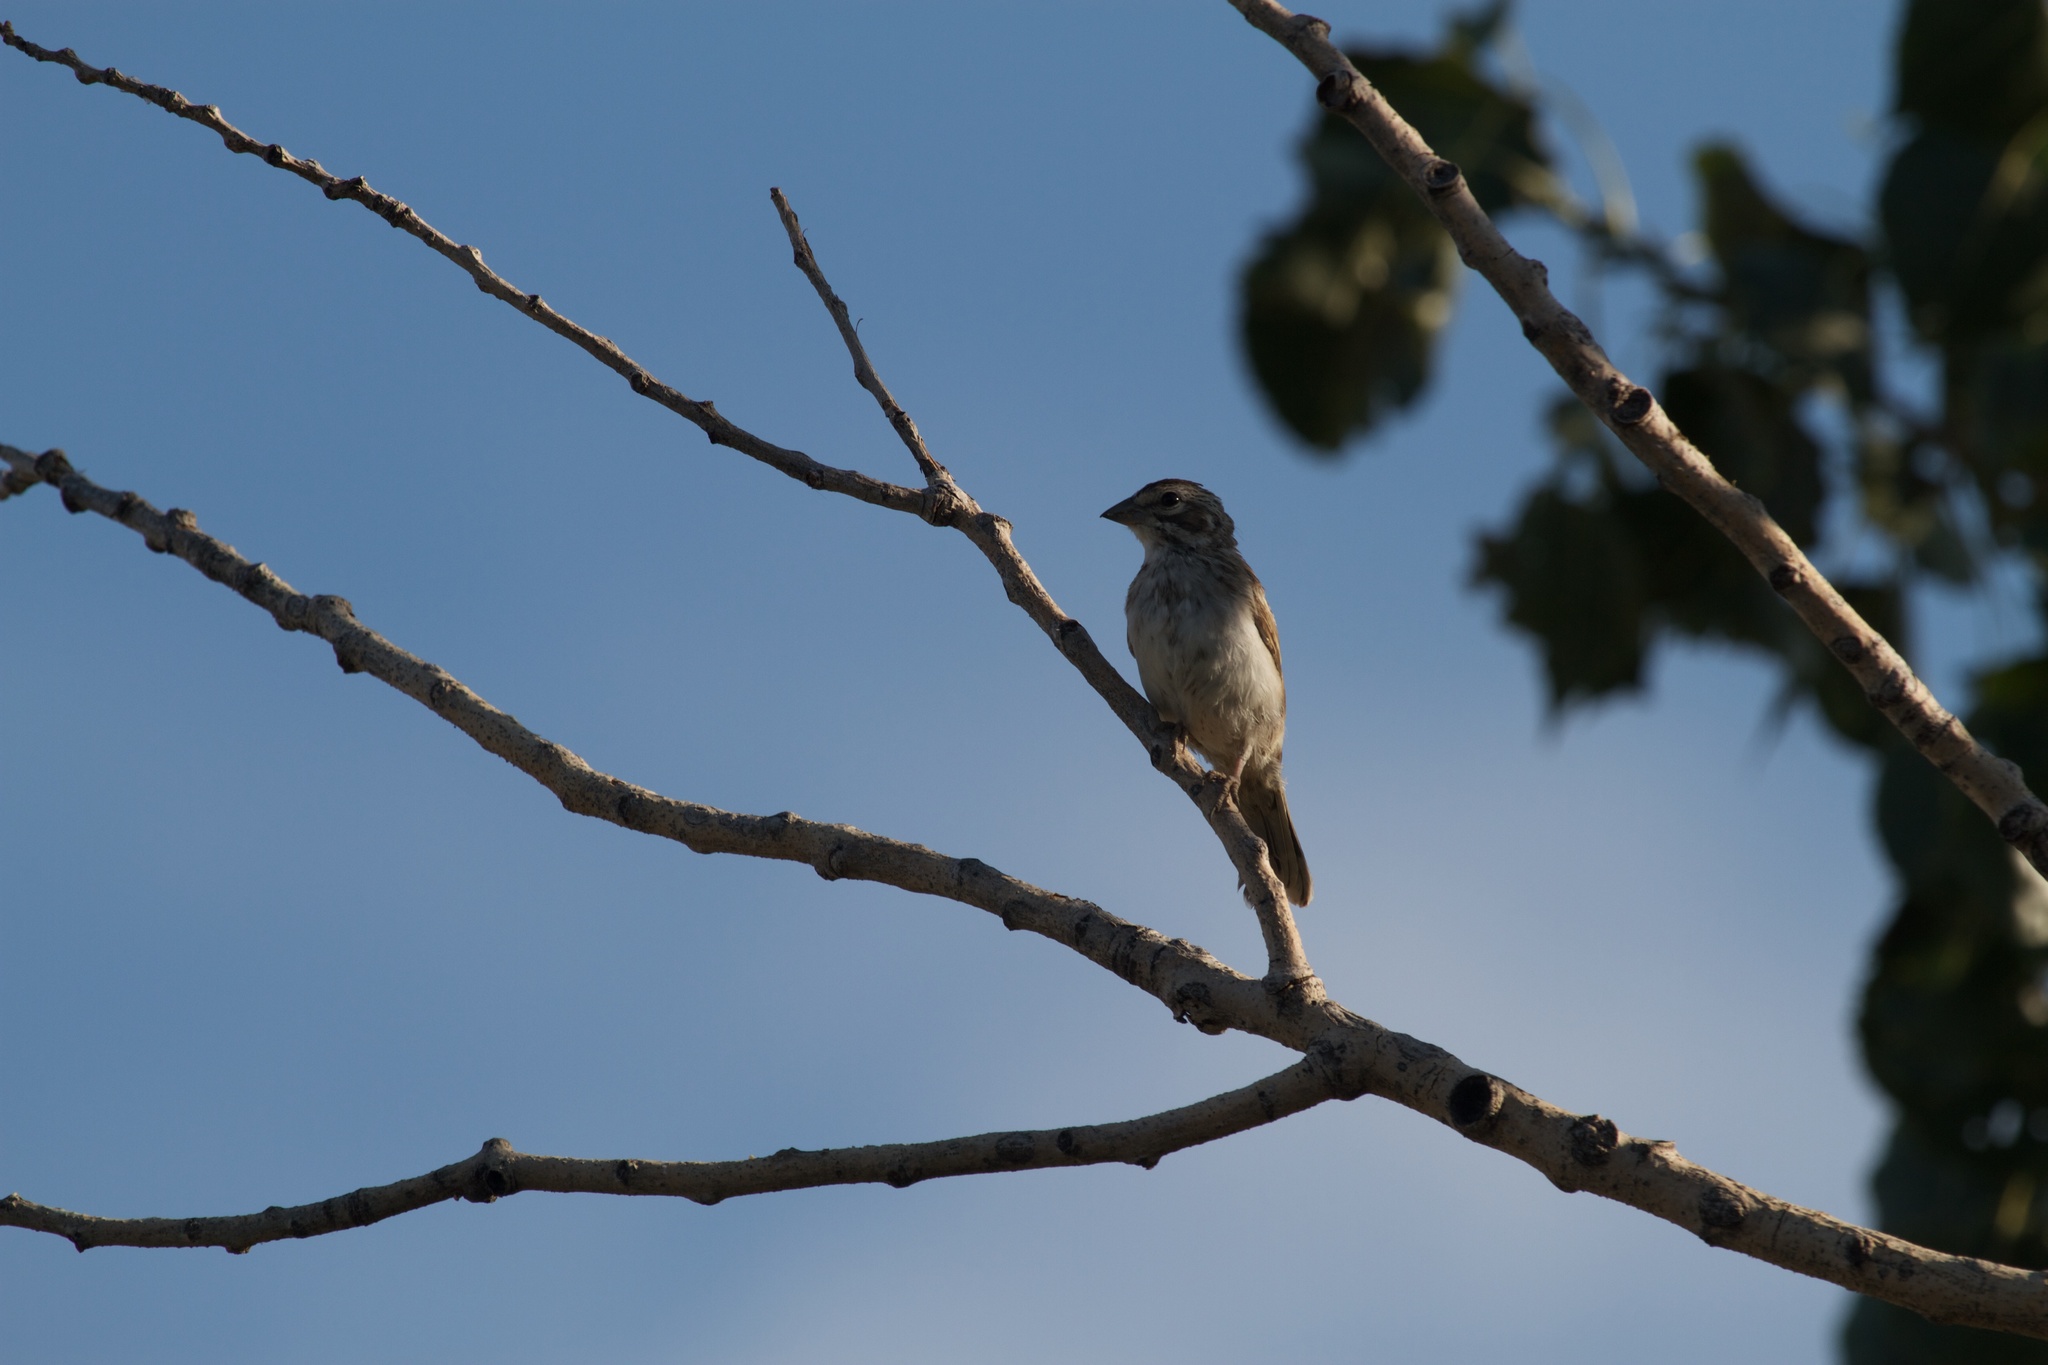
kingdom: Animalia
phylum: Chordata
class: Aves
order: Passeriformes
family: Passerellidae
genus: Chondestes
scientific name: Chondestes grammacus
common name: Lark sparrow
